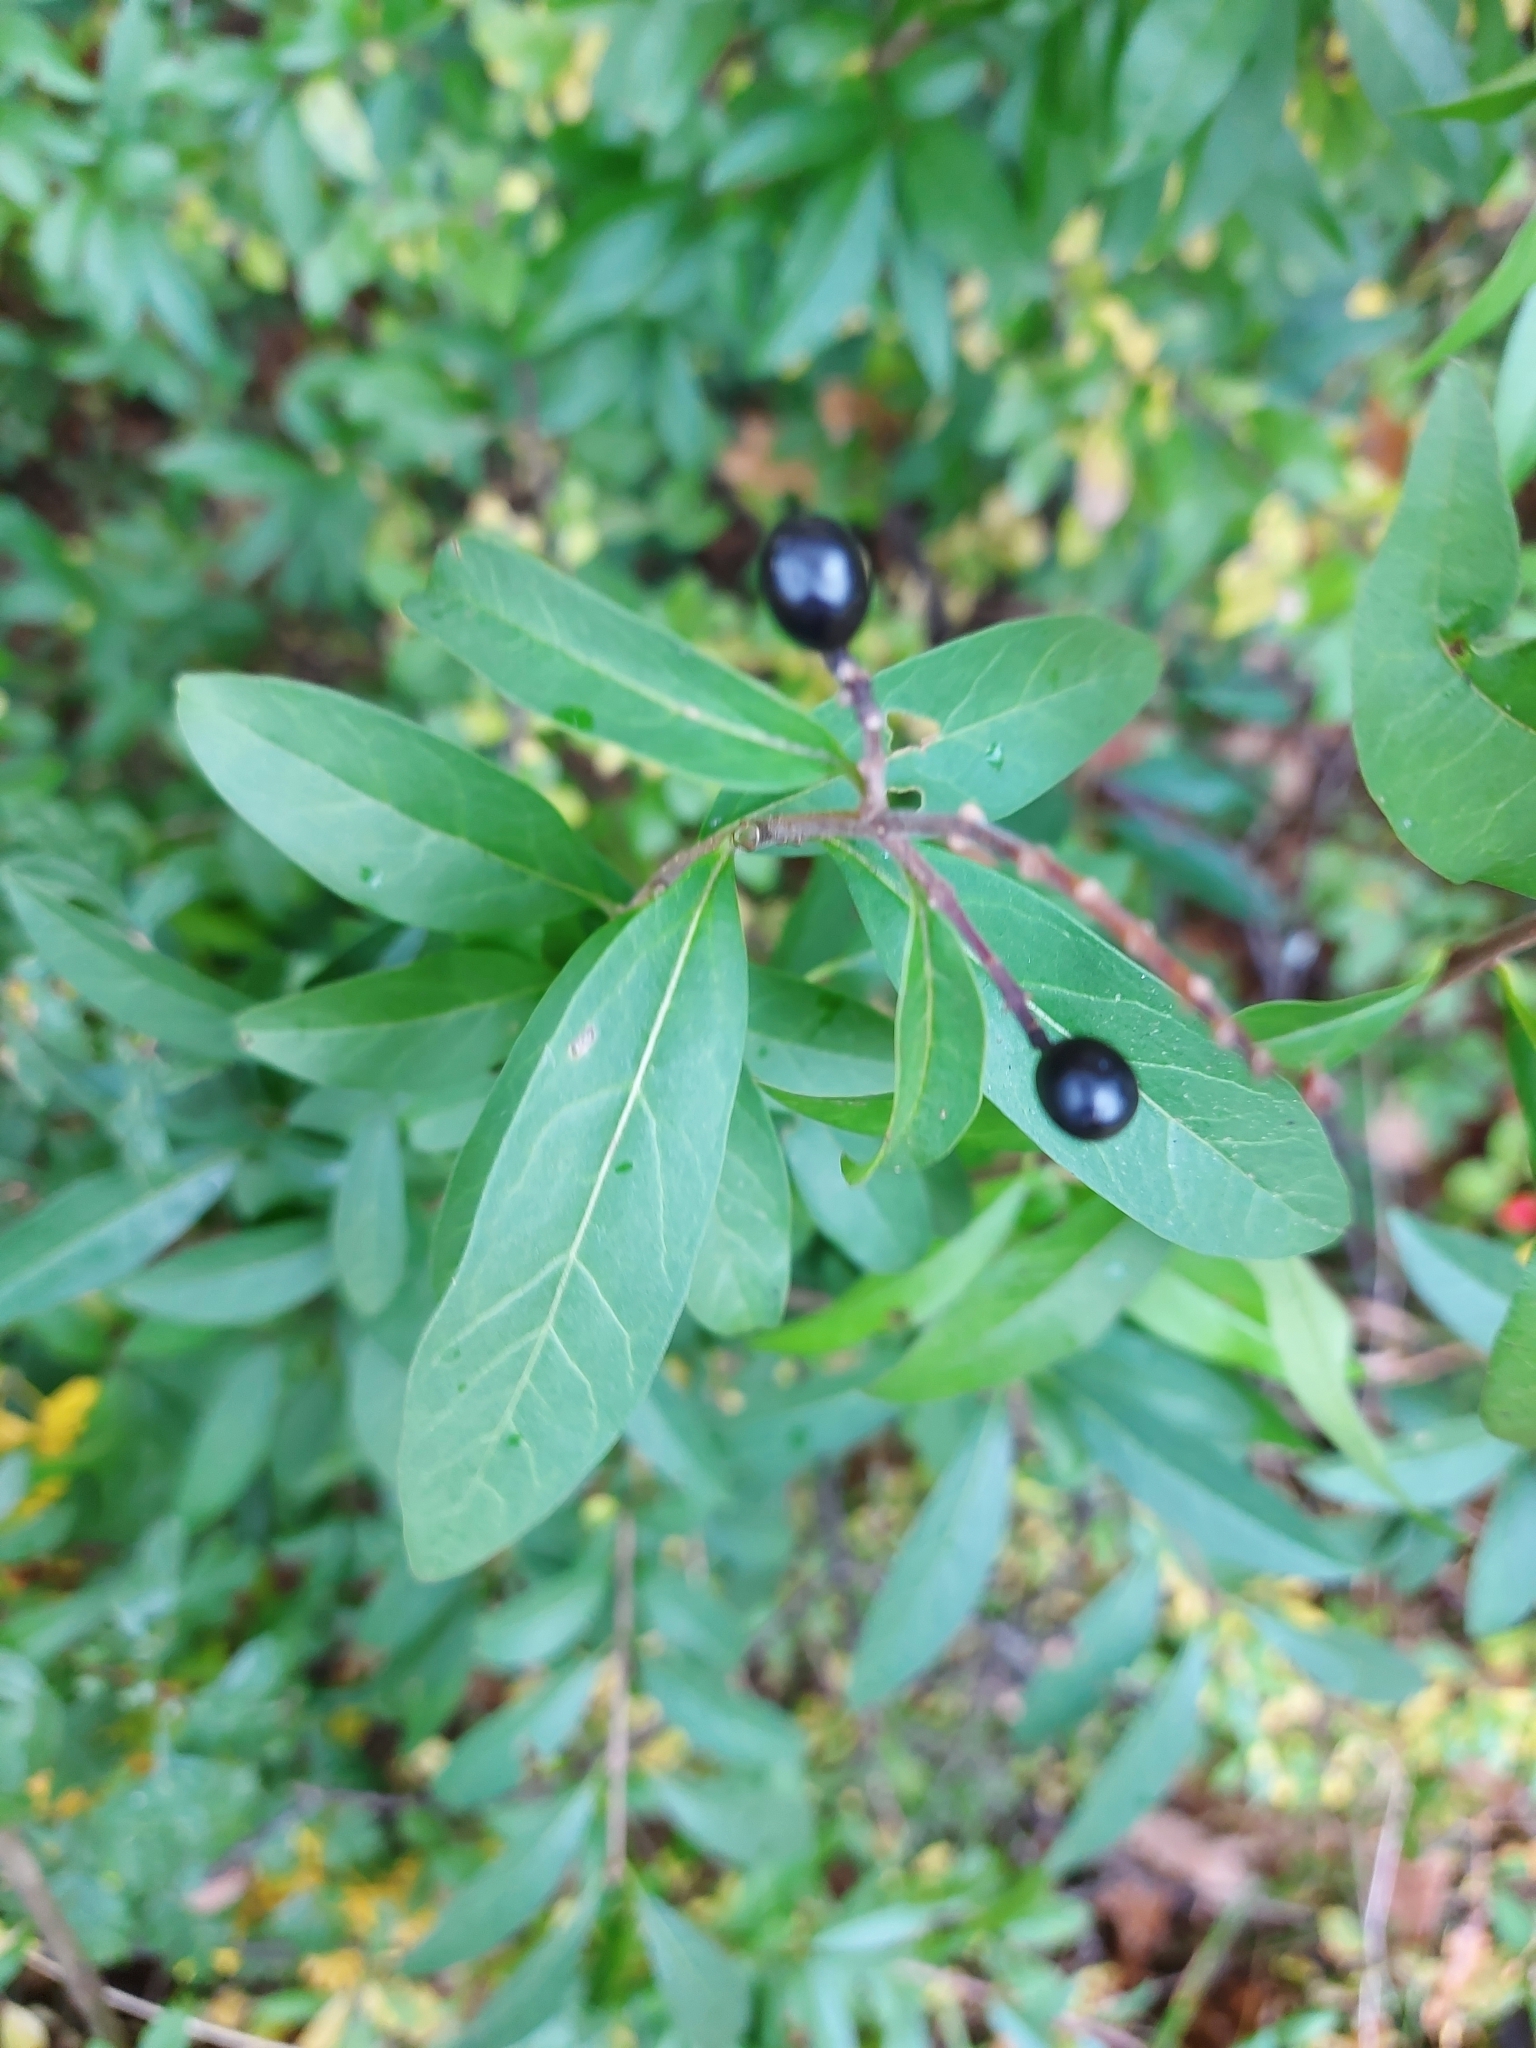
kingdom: Plantae
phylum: Tracheophyta
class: Magnoliopsida
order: Lamiales
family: Oleaceae
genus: Ligustrum
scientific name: Ligustrum vulgare
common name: Wild privet
